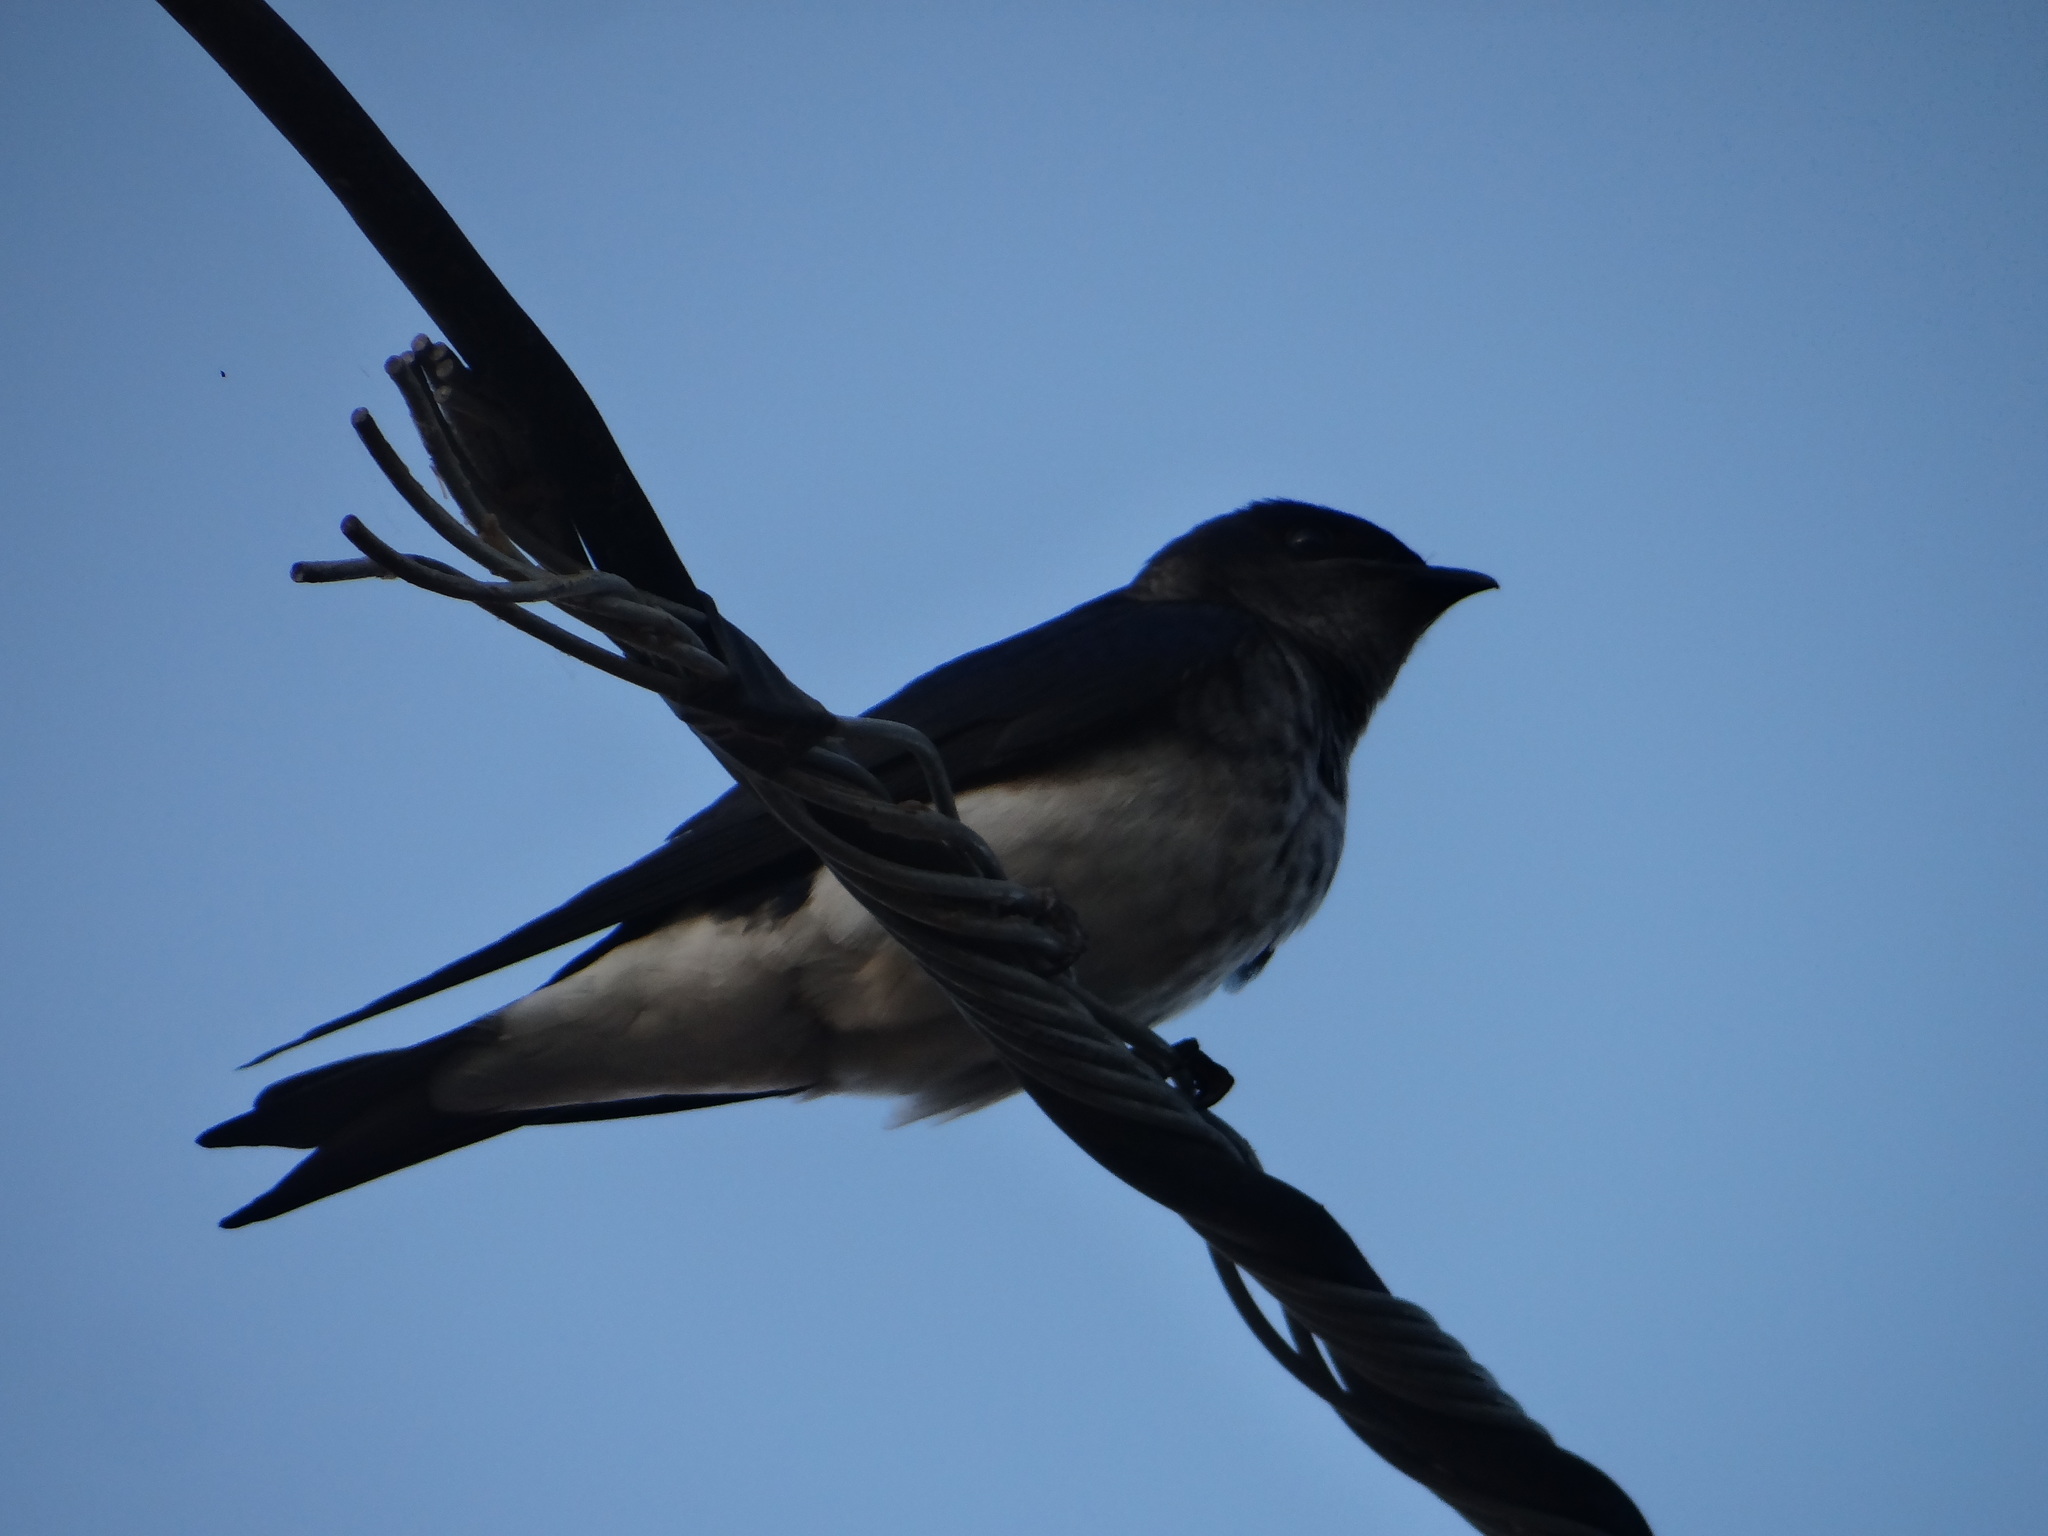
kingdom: Animalia
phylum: Chordata
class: Aves
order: Passeriformes
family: Hirundinidae
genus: Progne
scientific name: Progne chalybea
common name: Grey-breasted martin
